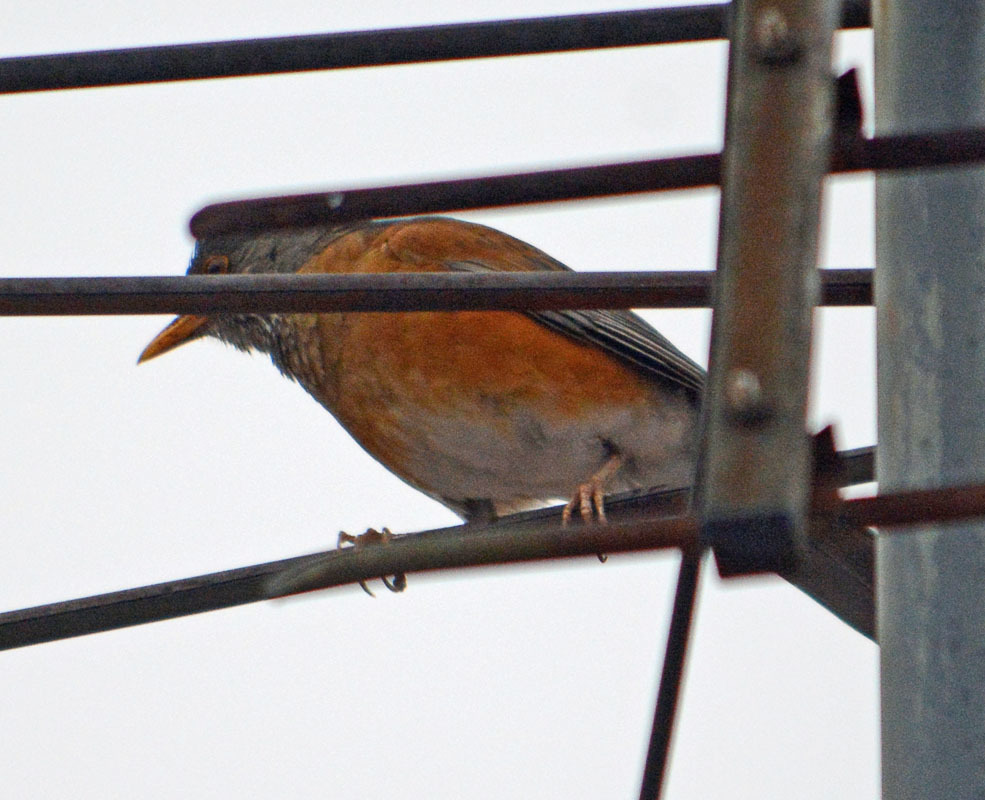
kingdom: Animalia
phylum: Chordata
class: Aves
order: Passeriformes
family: Turdidae
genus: Turdus
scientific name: Turdus rufopalliatus
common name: Rufous-backed robin
